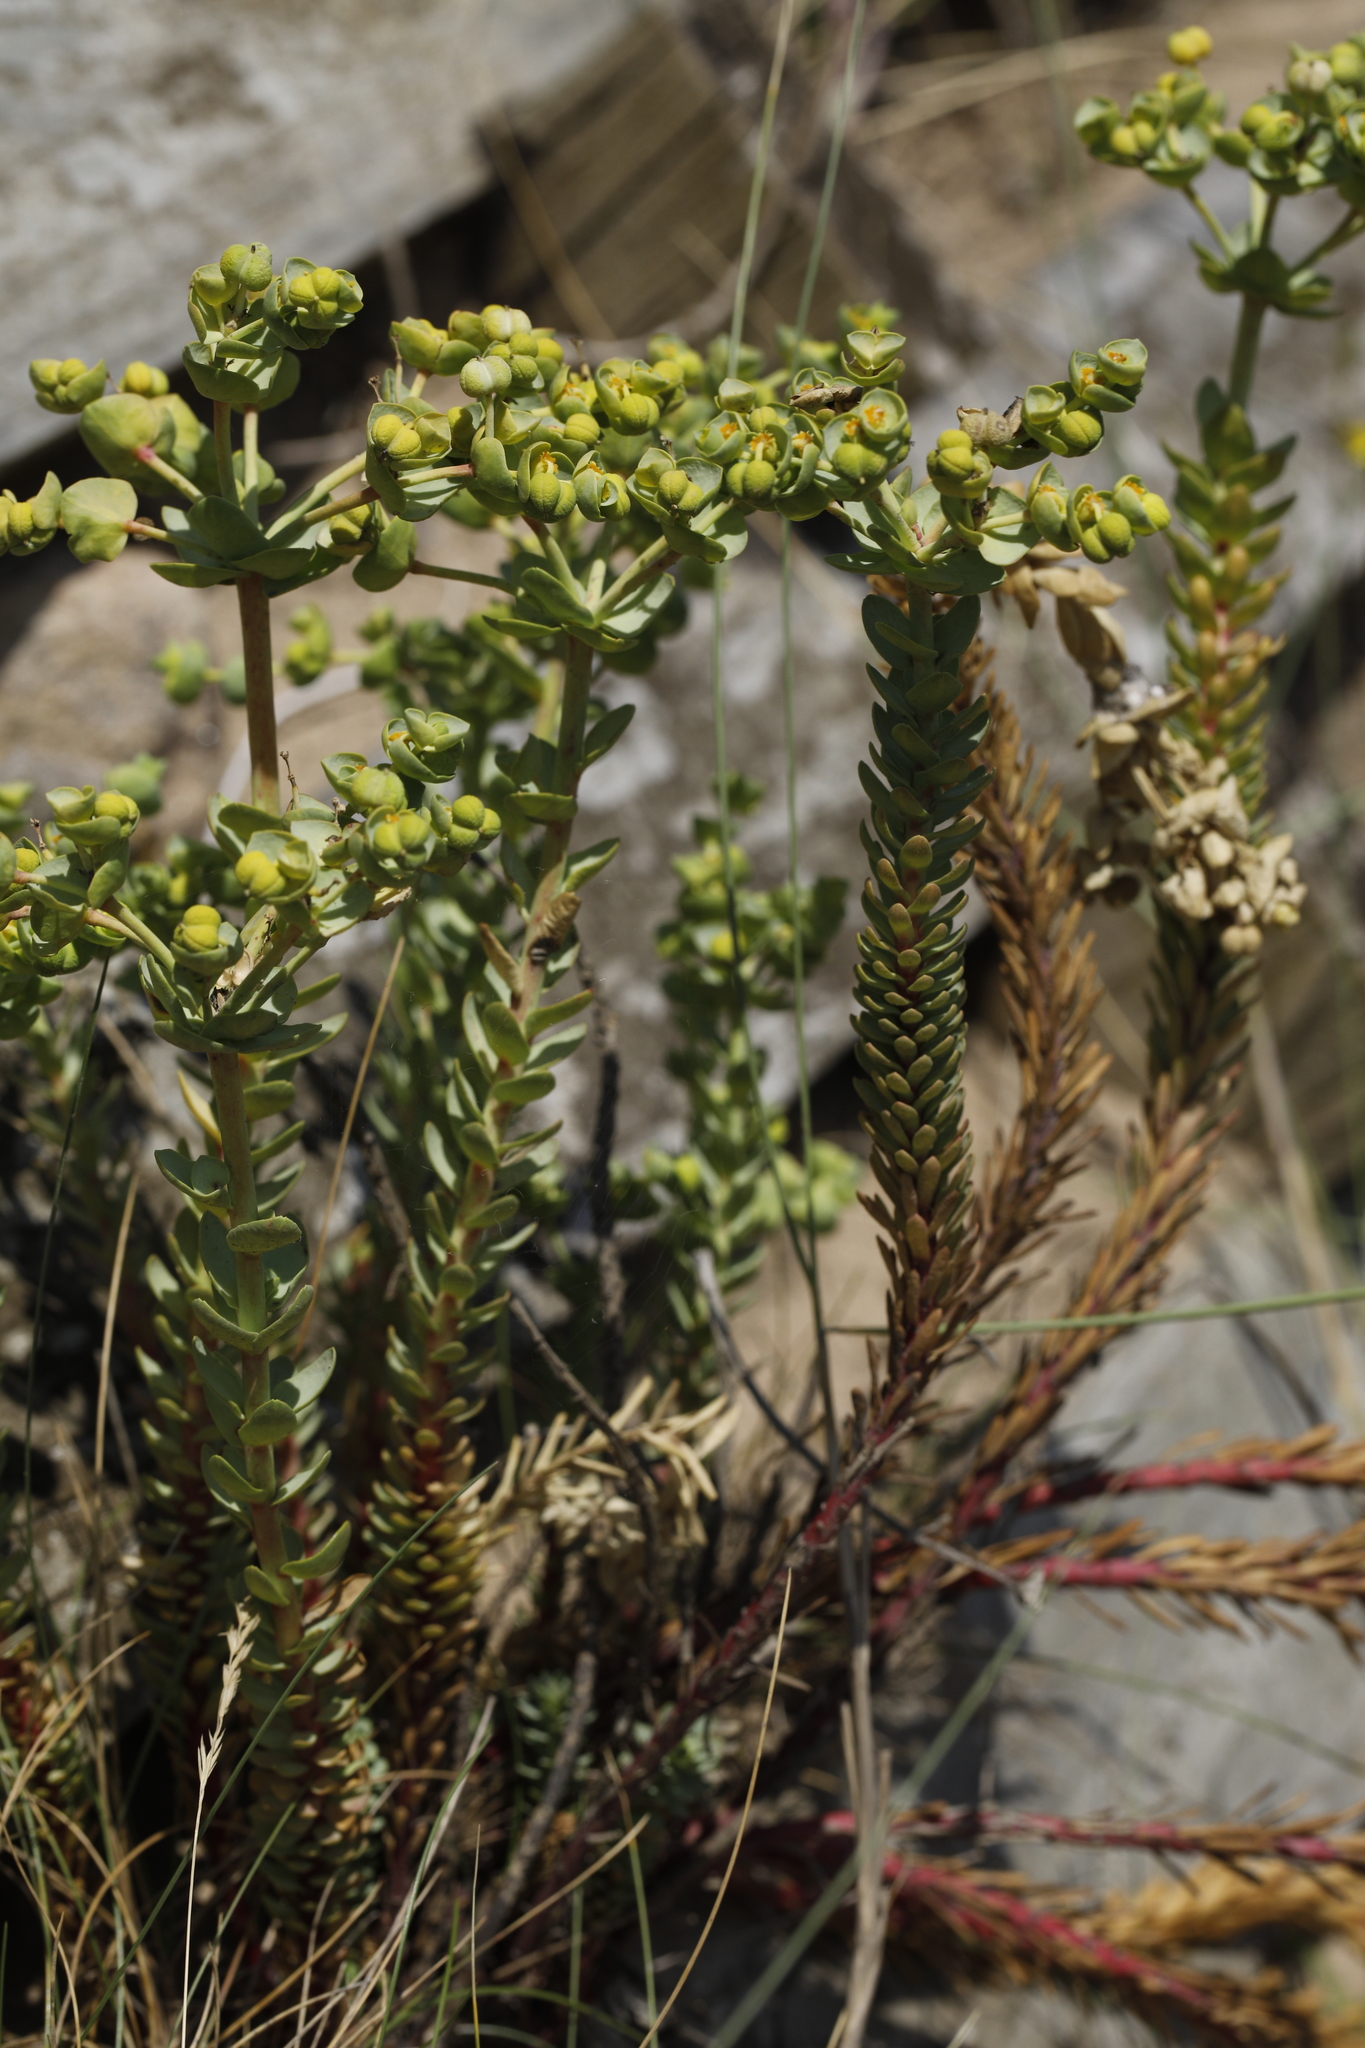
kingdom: Plantae
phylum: Tracheophyta
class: Magnoliopsida
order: Malpighiales
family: Euphorbiaceae
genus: Euphorbia
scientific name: Euphorbia paralias
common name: Sea spurge
